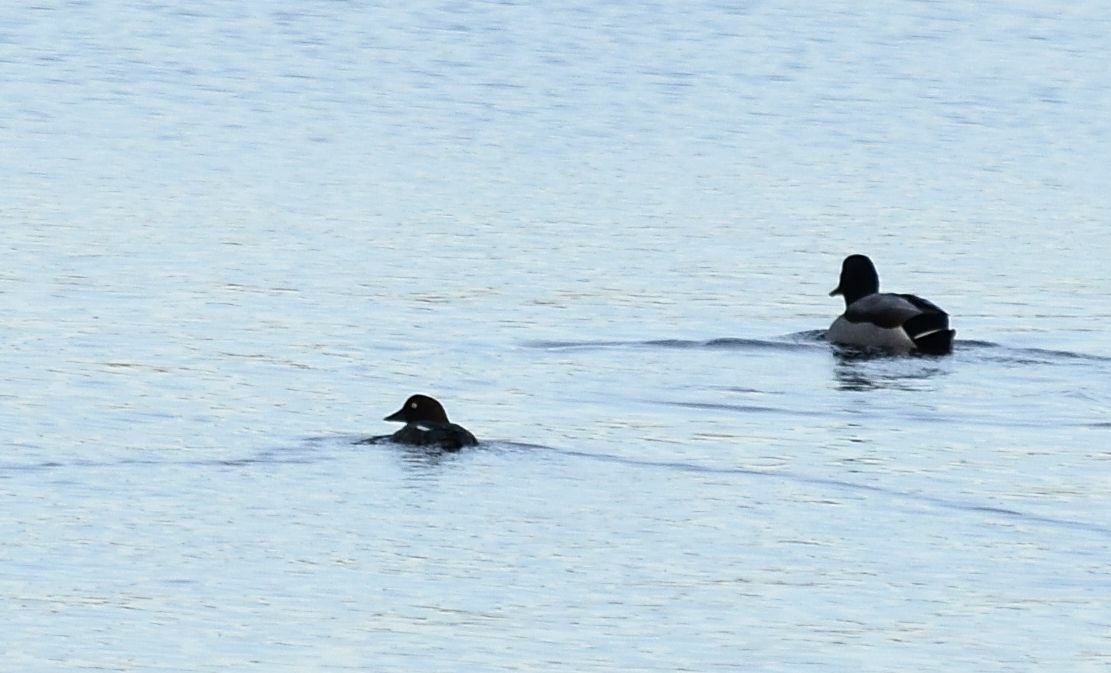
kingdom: Animalia
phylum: Chordata
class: Aves
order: Anseriformes
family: Anatidae
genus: Bucephala
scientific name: Bucephala clangula
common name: Common goldeneye
